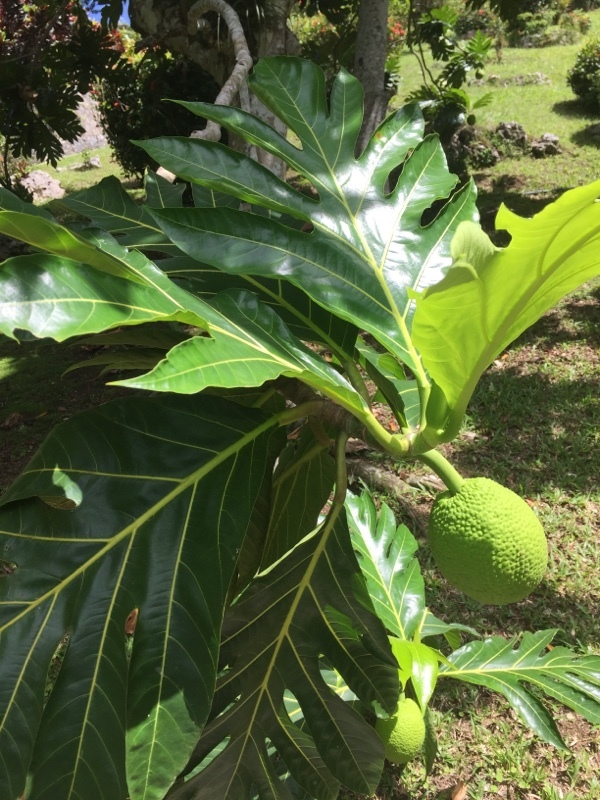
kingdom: Plantae
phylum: Tracheophyta
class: Magnoliopsida
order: Rosales
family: Moraceae
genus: Artocarpus
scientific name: Artocarpus altilis
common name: Breadfruit
